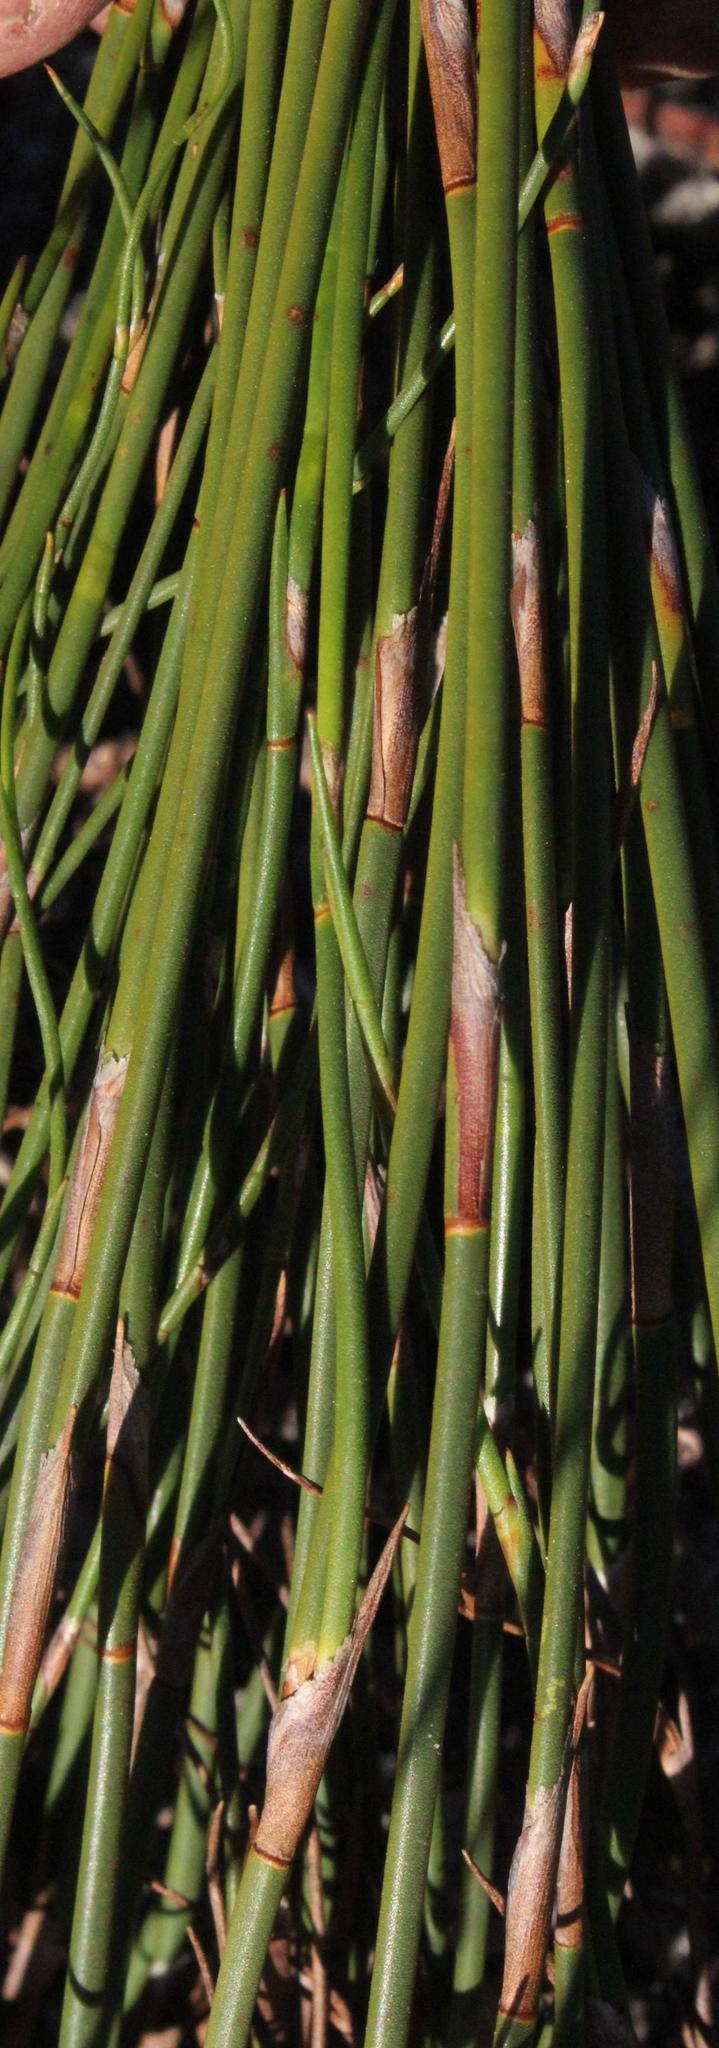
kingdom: Plantae
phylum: Tracheophyta
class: Liliopsida
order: Poales
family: Restionaceae
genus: Restio
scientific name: Restio bifurcus
